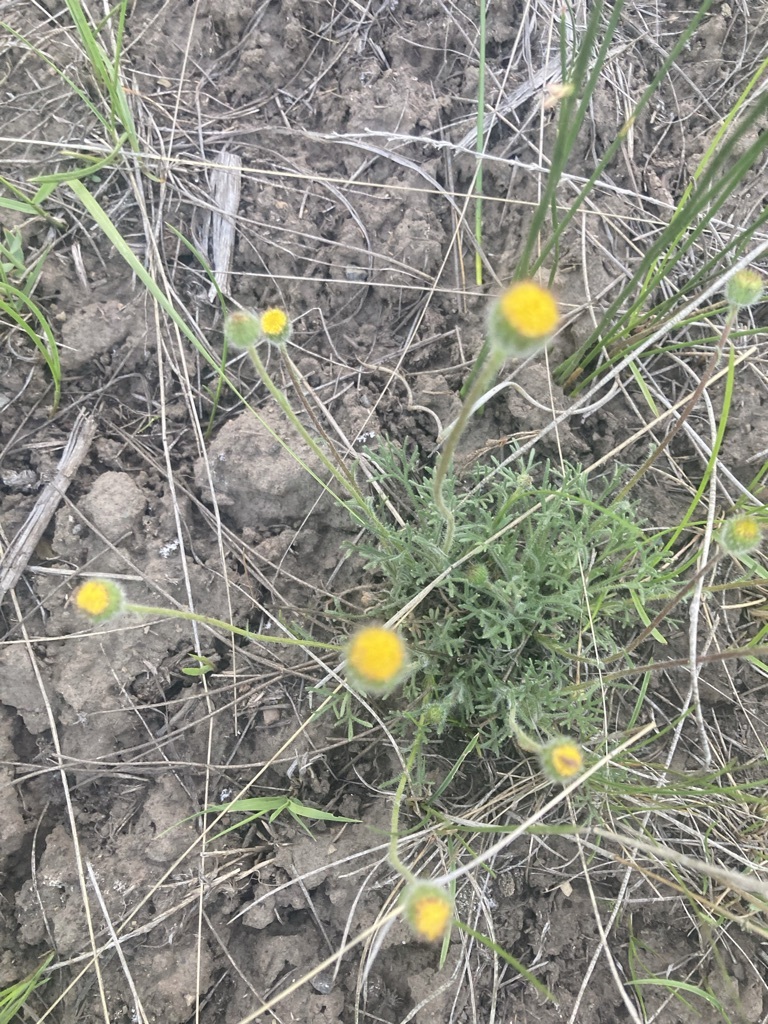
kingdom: Plantae
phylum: Tracheophyta
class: Magnoliopsida
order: Asterales
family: Asteraceae
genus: Erigeron
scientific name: Erigeron compositus
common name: Dwarf mountain fleabane
